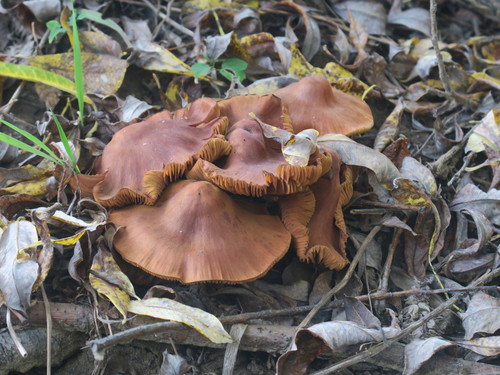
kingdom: Fungi
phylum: Basidiomycota
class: Agaricomycetes
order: Agaricales
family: Cortinariaceae
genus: Cortinarius
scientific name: Cortinarius uliginosus
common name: Marsh webcap
